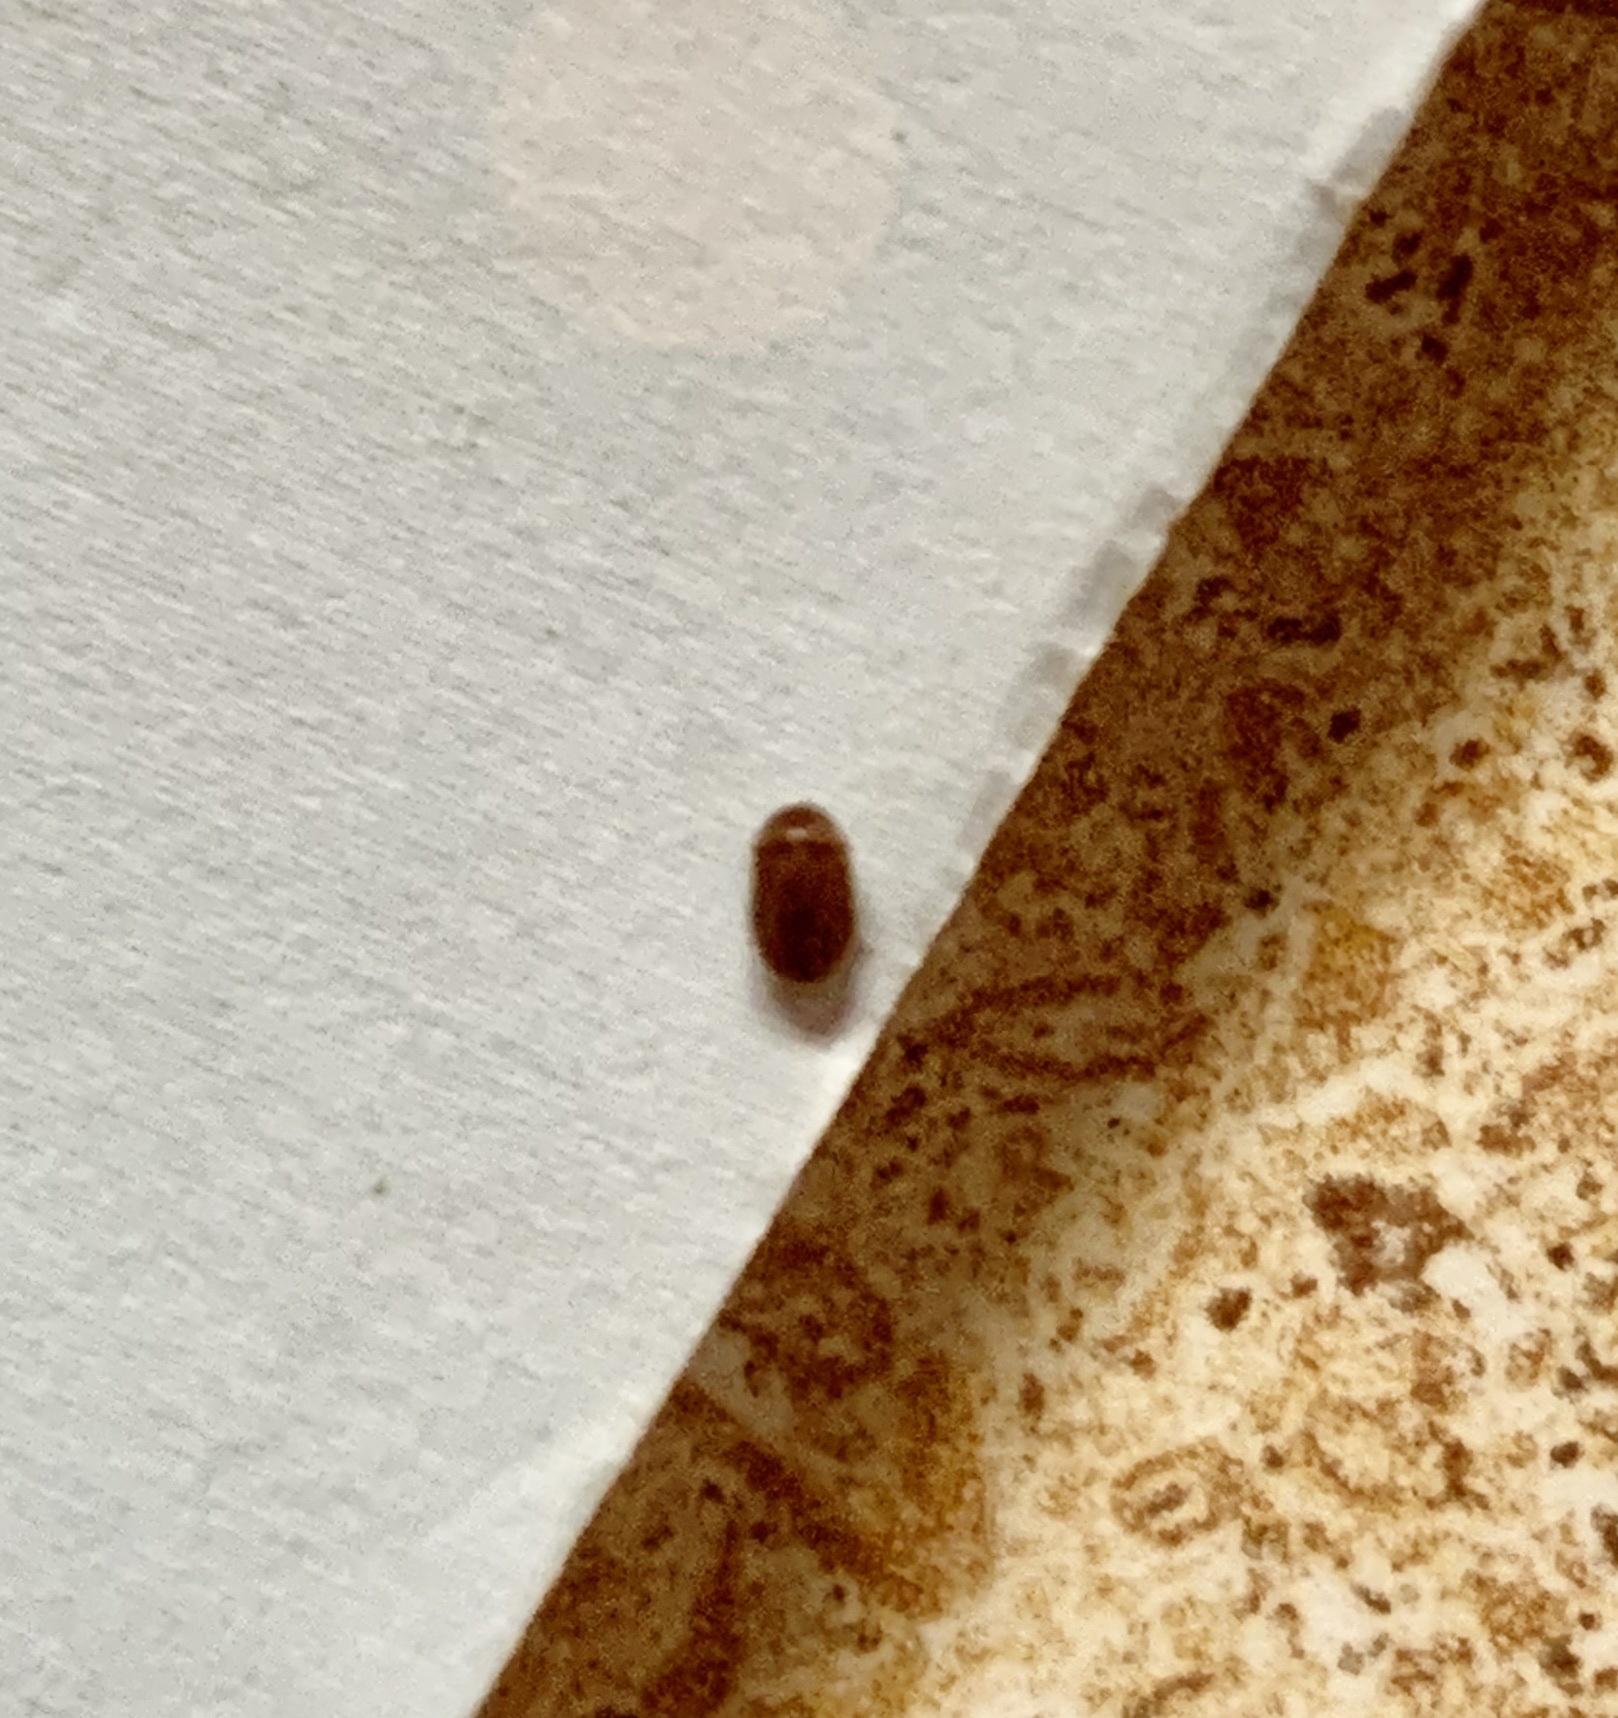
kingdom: Animalia
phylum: Arthropoda
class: Insecta
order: Coleoptera
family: Anobiidae
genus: Lasioderma
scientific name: Lasioderma serricorne
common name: Cigarette beetle
